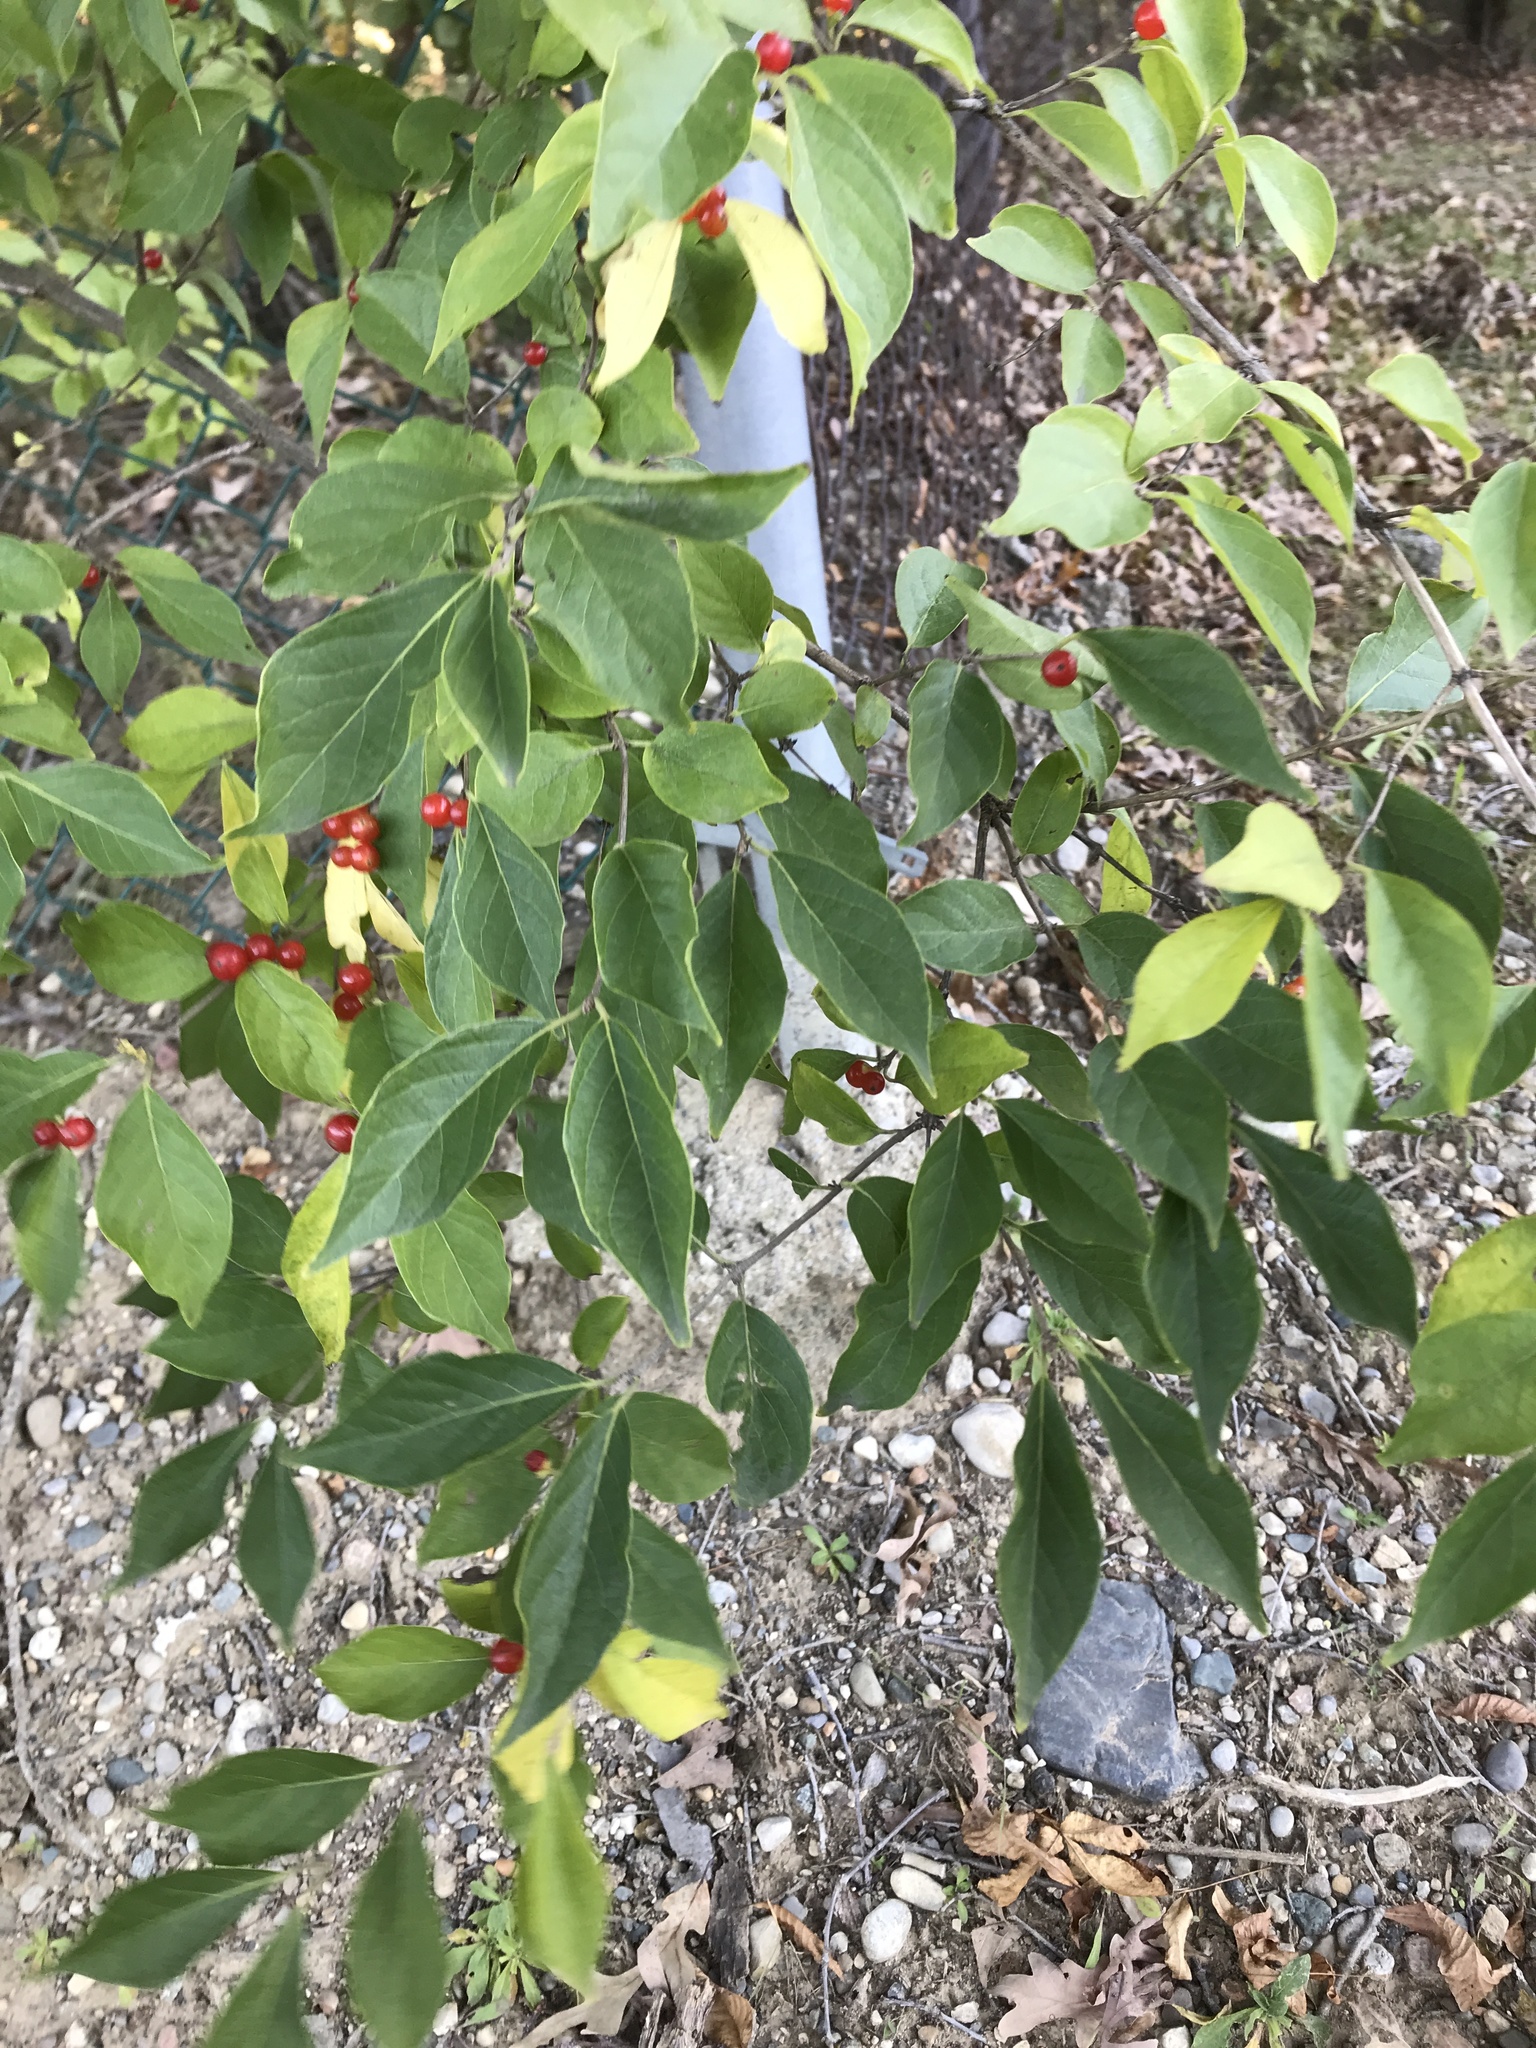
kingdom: Plantae
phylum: Tracheophyta
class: Magnoliopsida
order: Dipsacales
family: Caprifoliaceae
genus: Lonicera
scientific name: Lonicera maackii
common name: Amur honeysuckle
